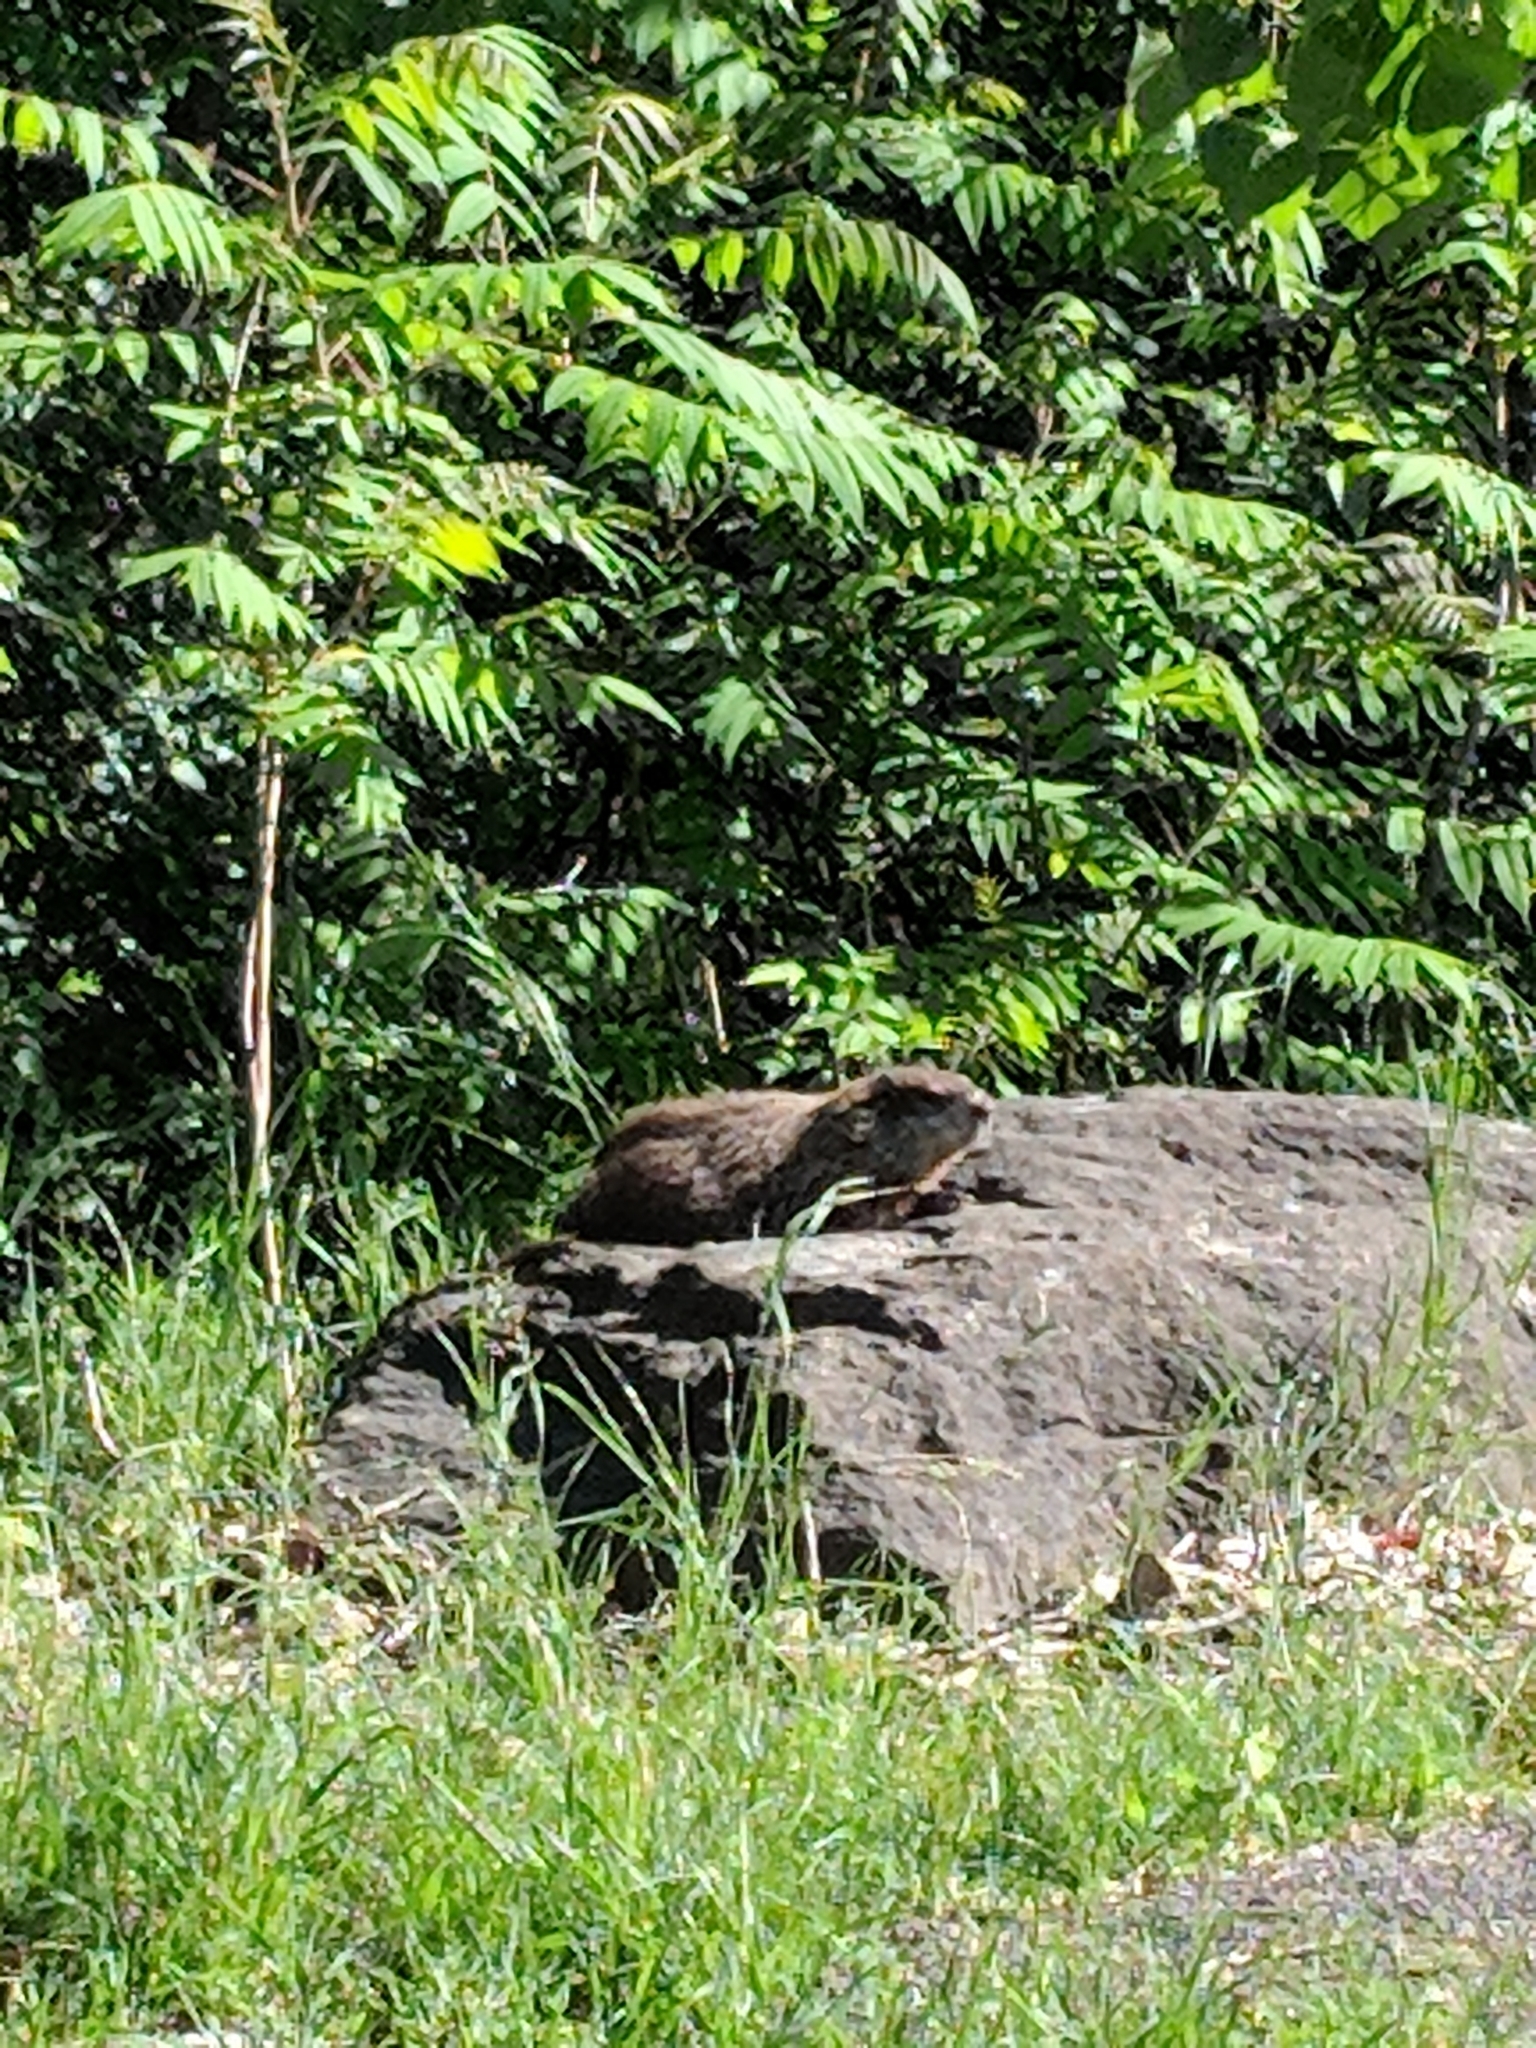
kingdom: Animalia
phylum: Chordata
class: Mammalia
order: Rodentia
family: Sciuridae
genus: Marmota
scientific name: Marmota monax
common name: Groundhog
